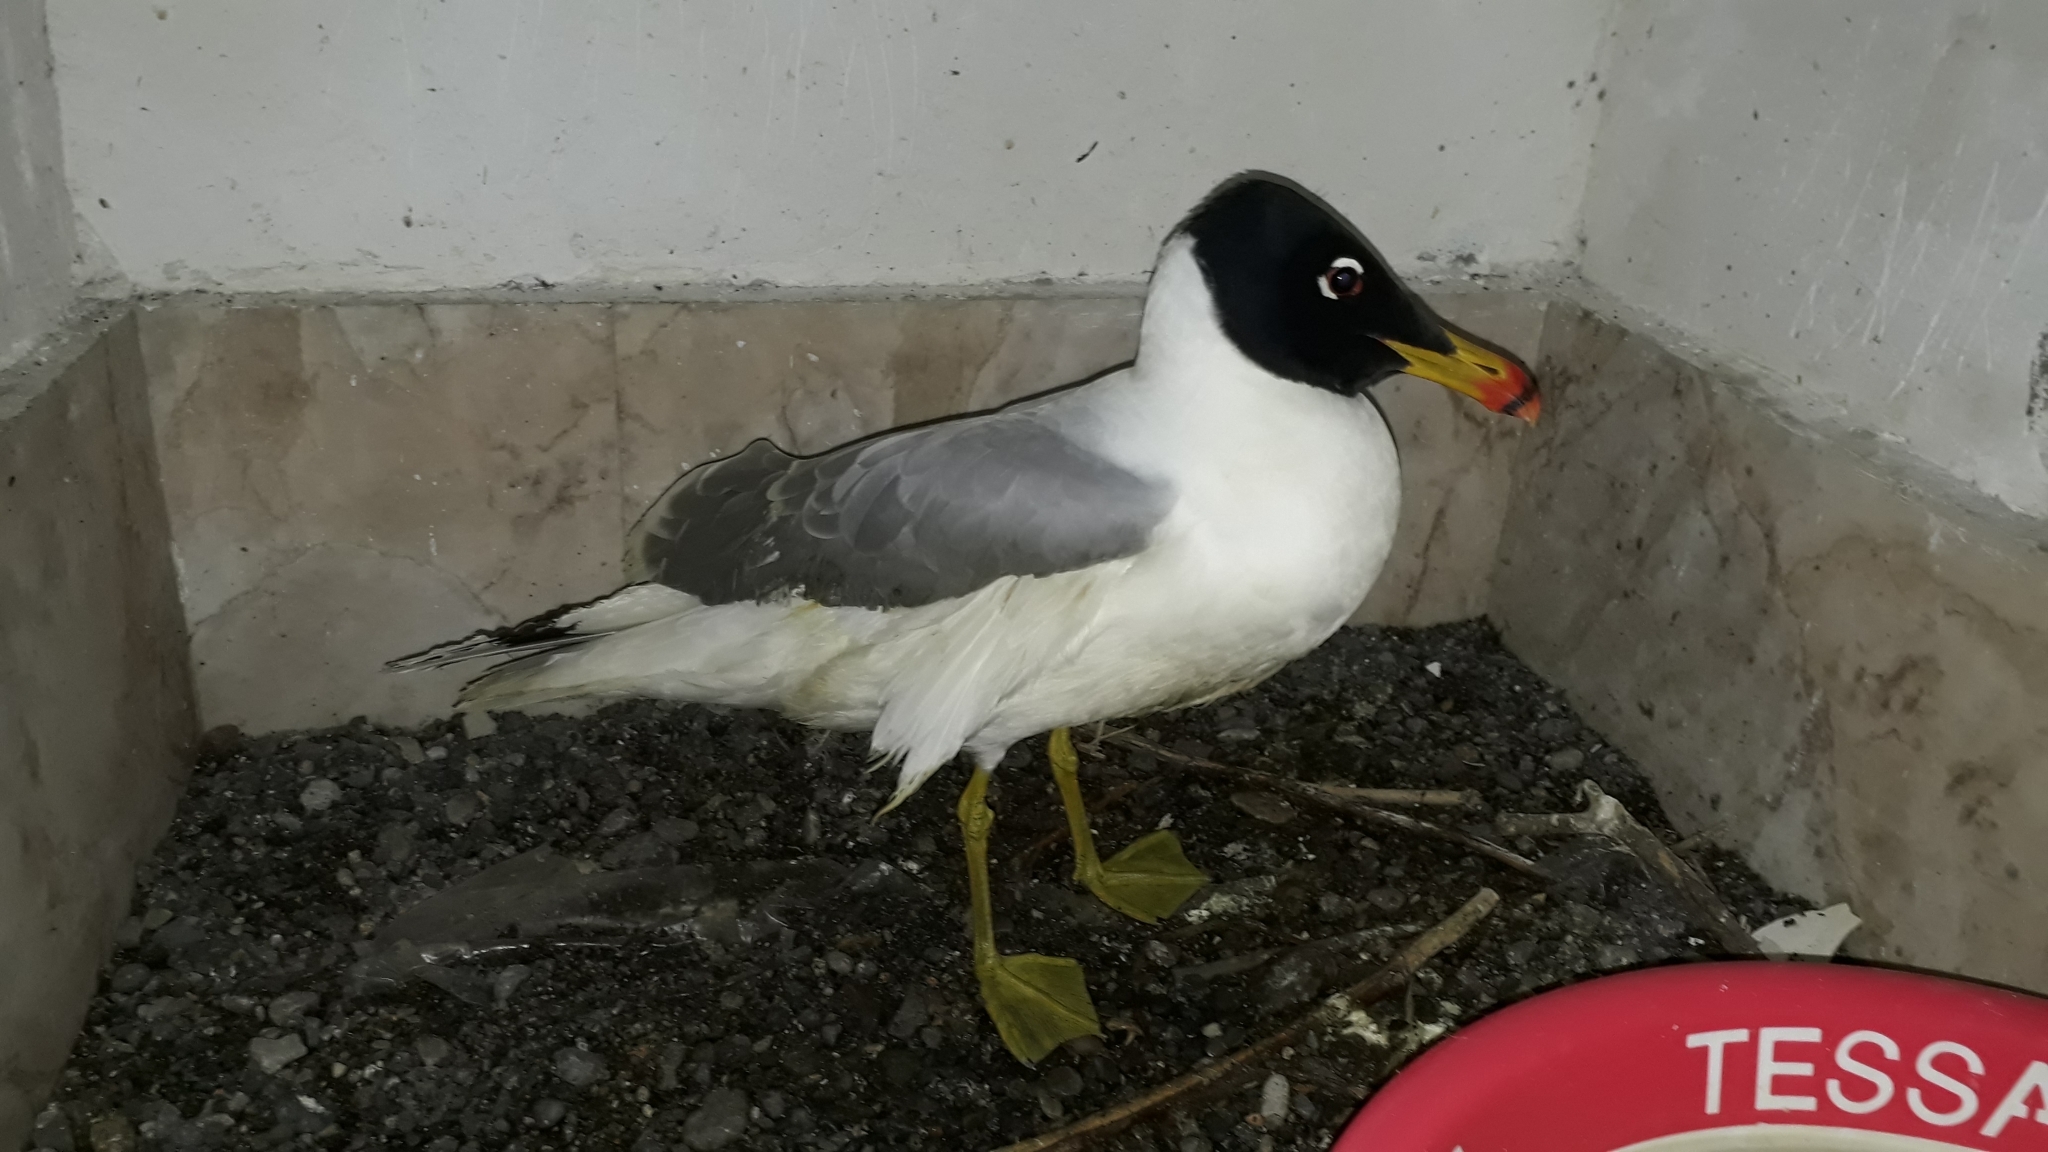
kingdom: Animalia
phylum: Chordata
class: Aves
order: Charadriiformes
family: Laridae
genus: Ichthyaetus
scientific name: Ichthyaetus ichthyaetus
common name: Pallas's gull
